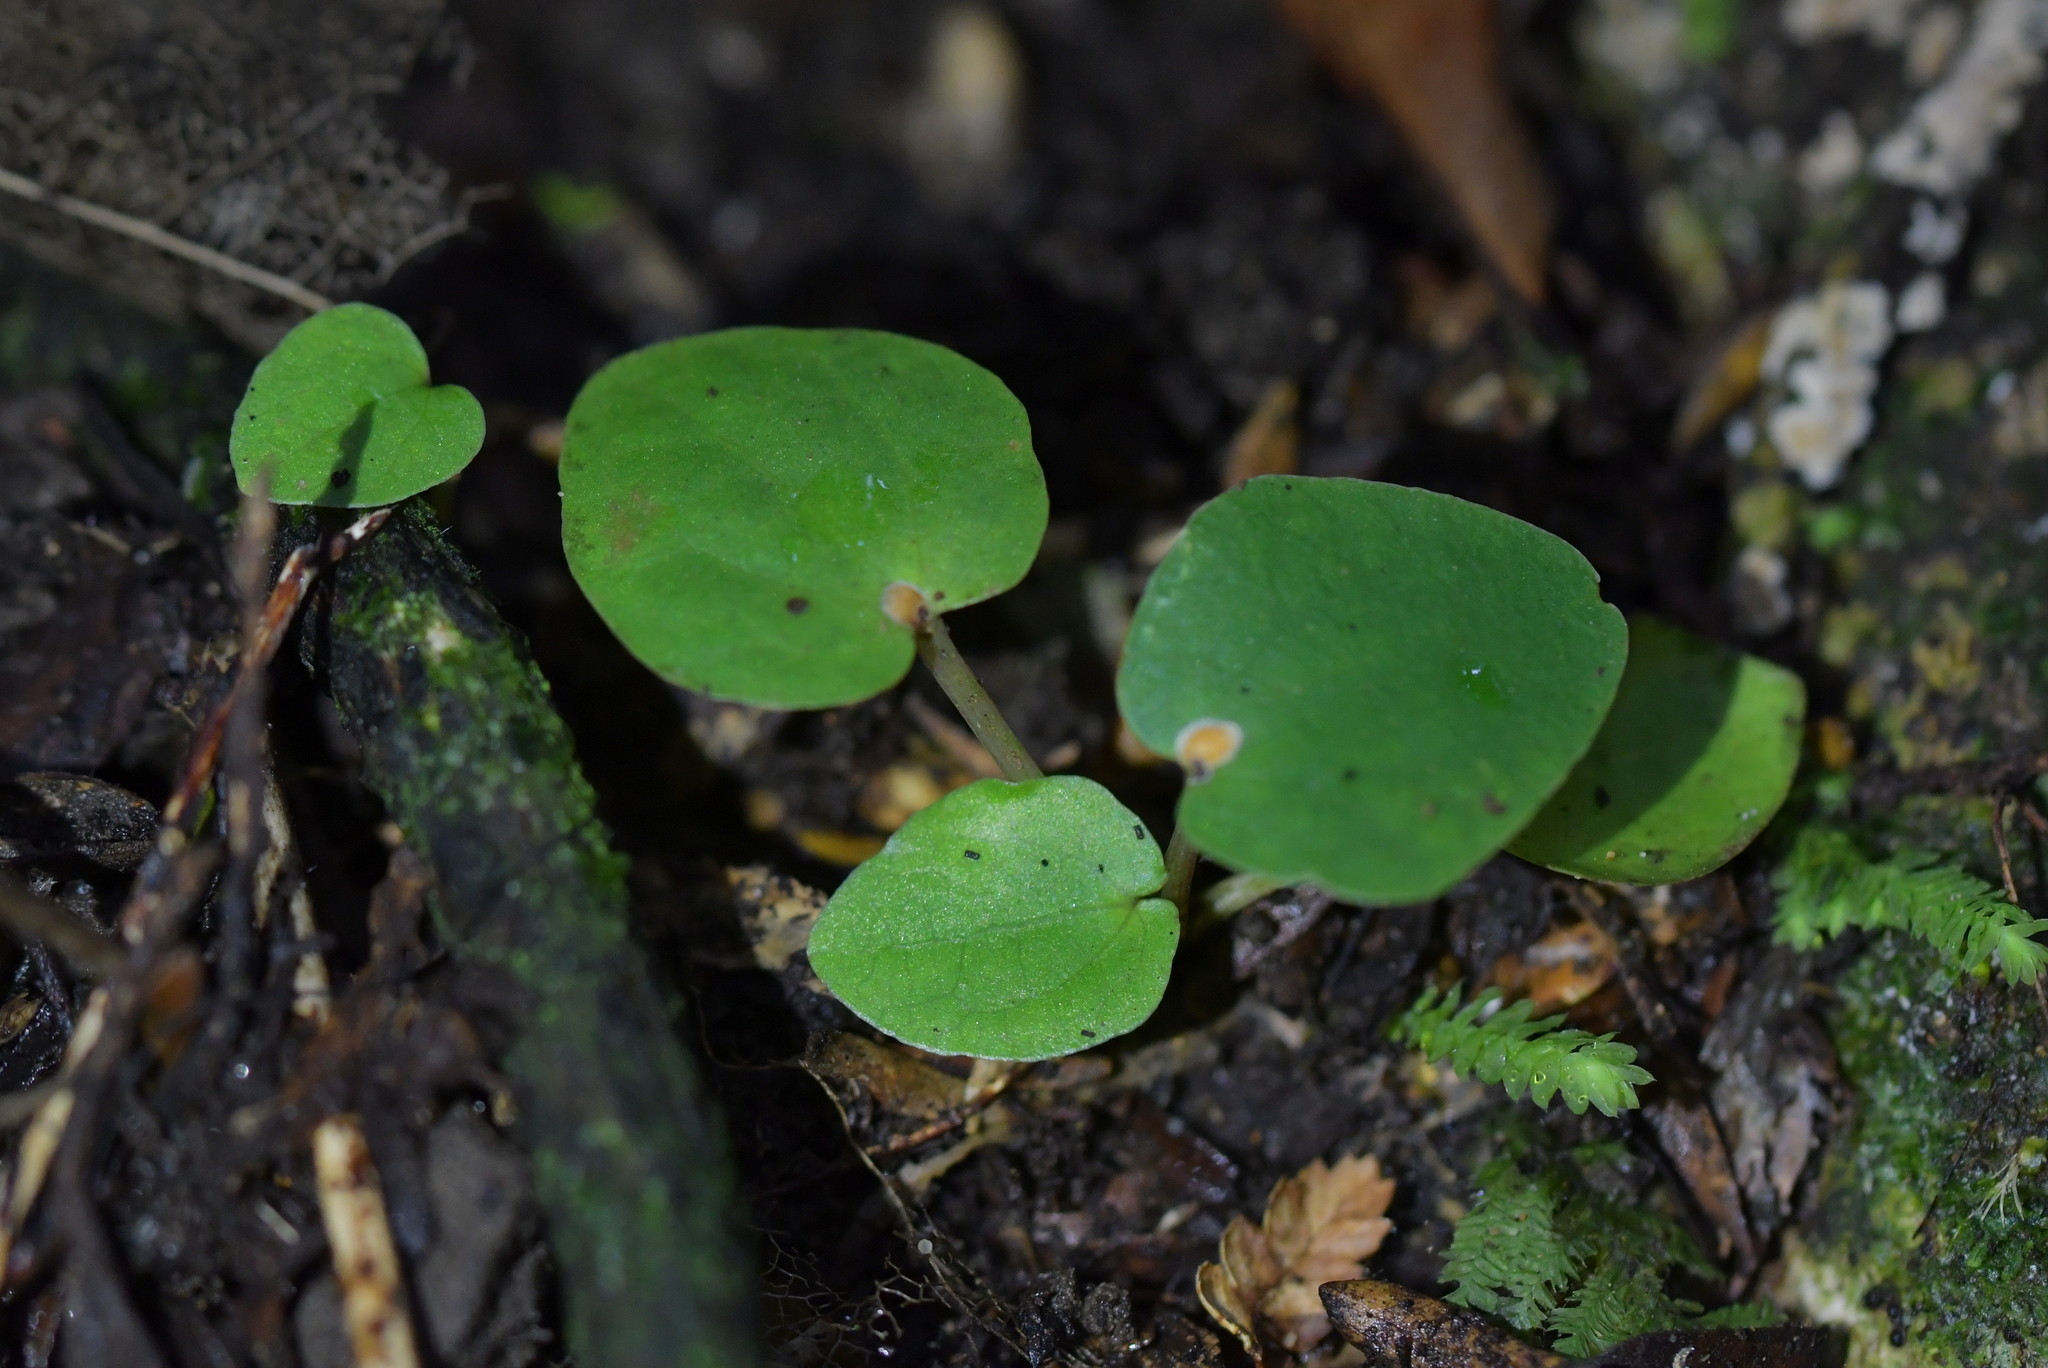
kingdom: Plantae
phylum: Tracheophyta
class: Magnoliopsida
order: Piperales
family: Piperaceae
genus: Macropiper
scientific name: Macropiper excelsum
